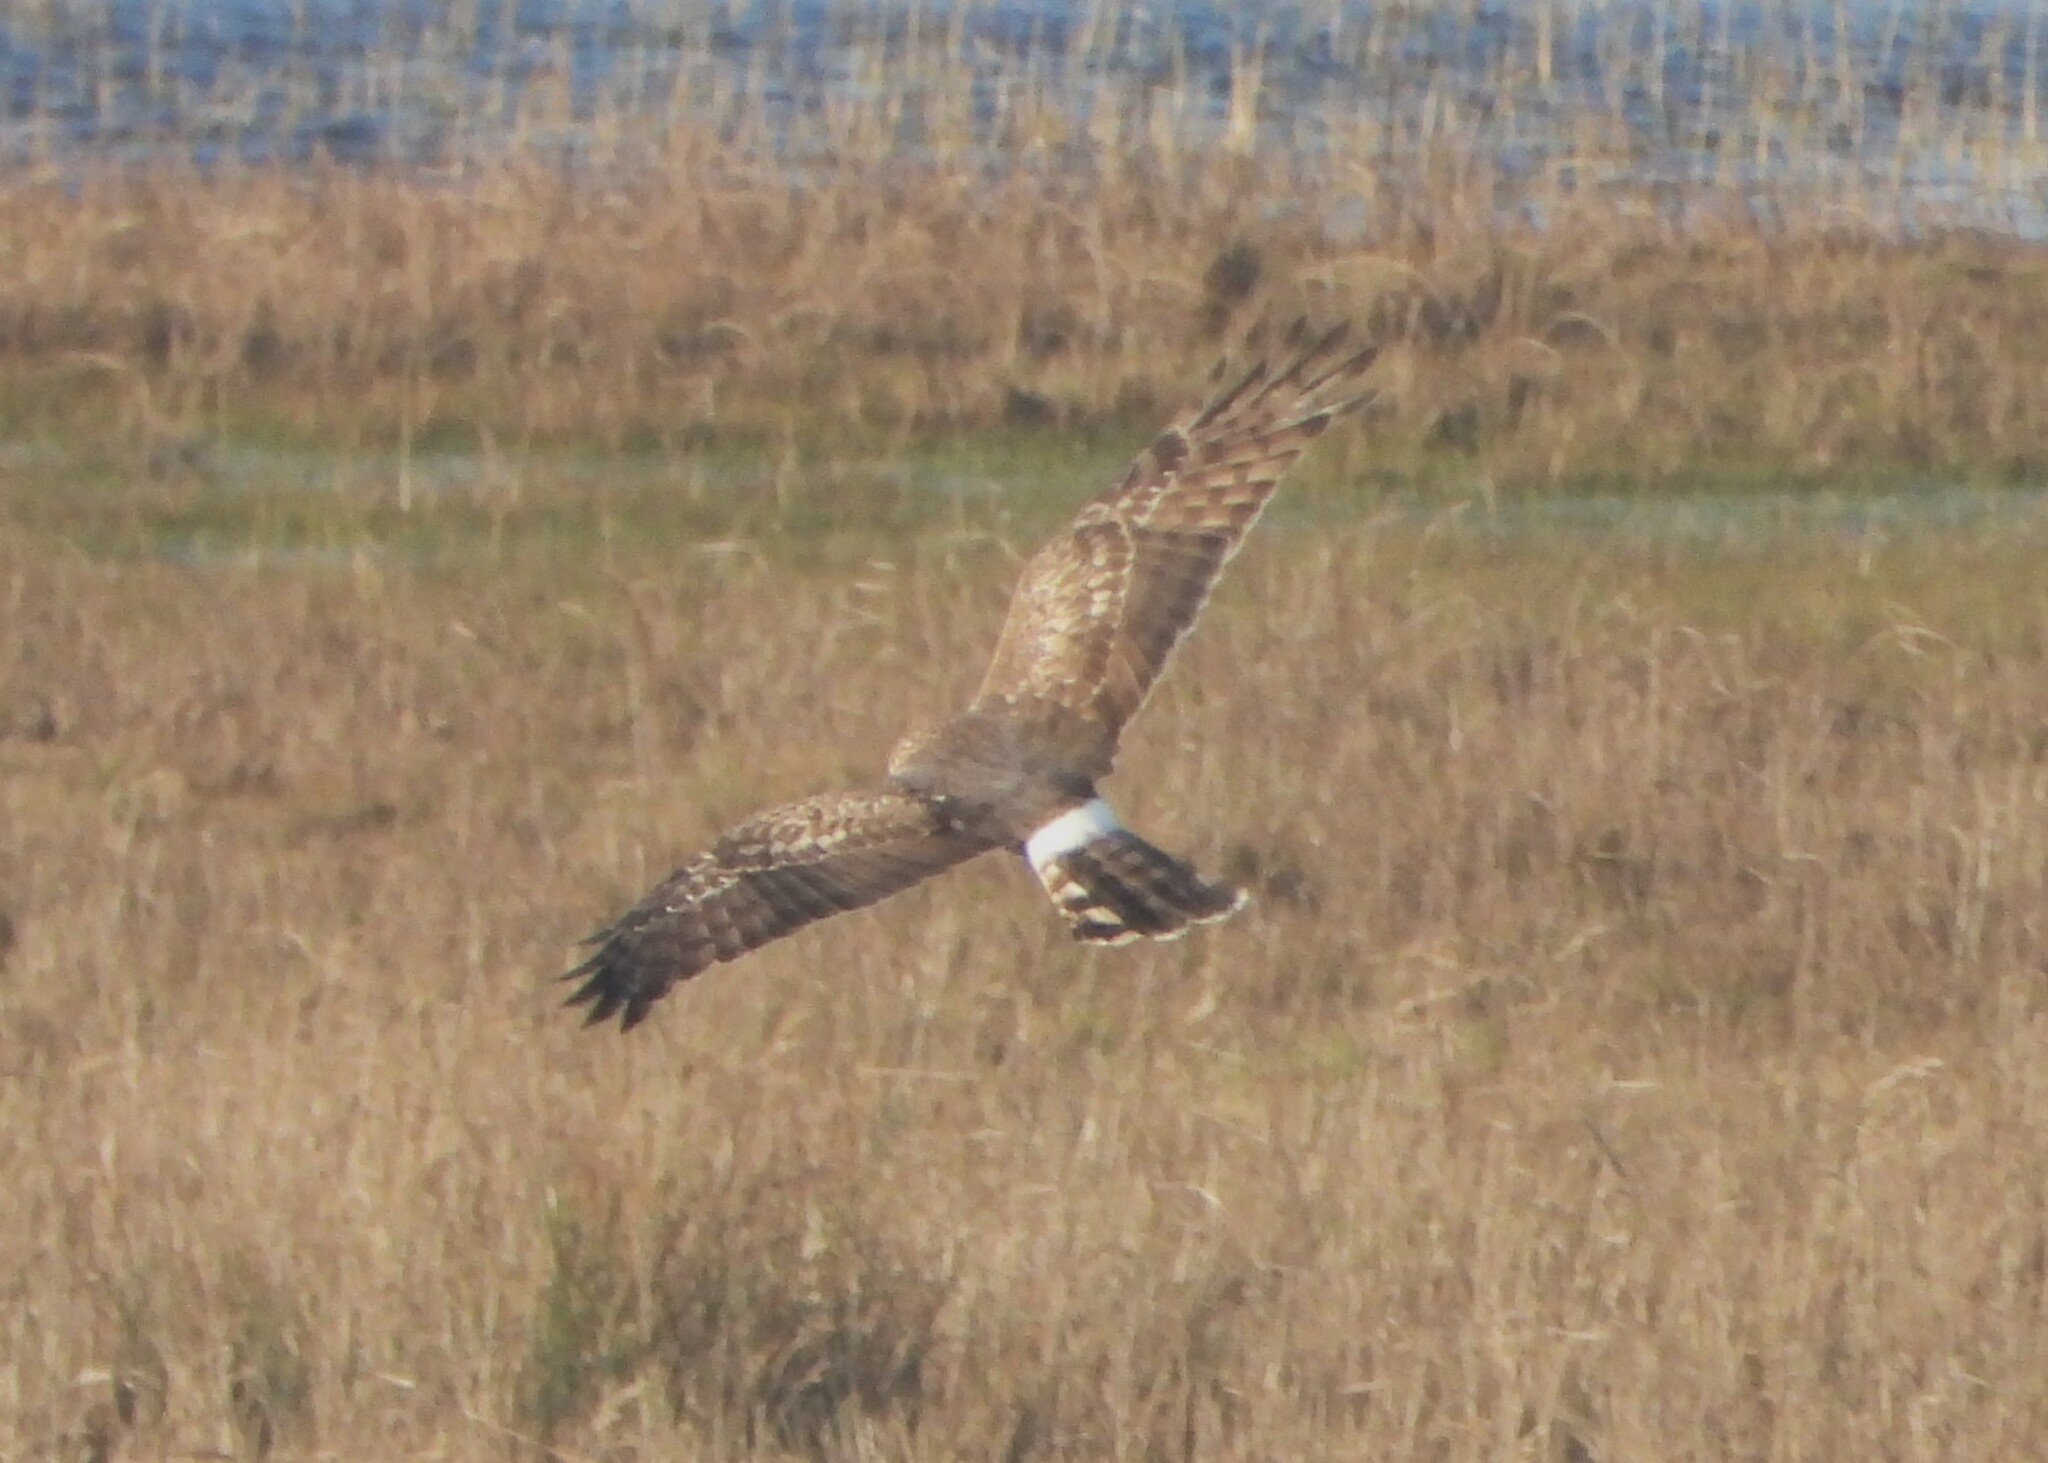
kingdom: Animalia
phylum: Chordata
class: Aves
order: Accipitriformes
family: Accipitridae
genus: Circus
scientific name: Circus cyaneus
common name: Hen harrier
